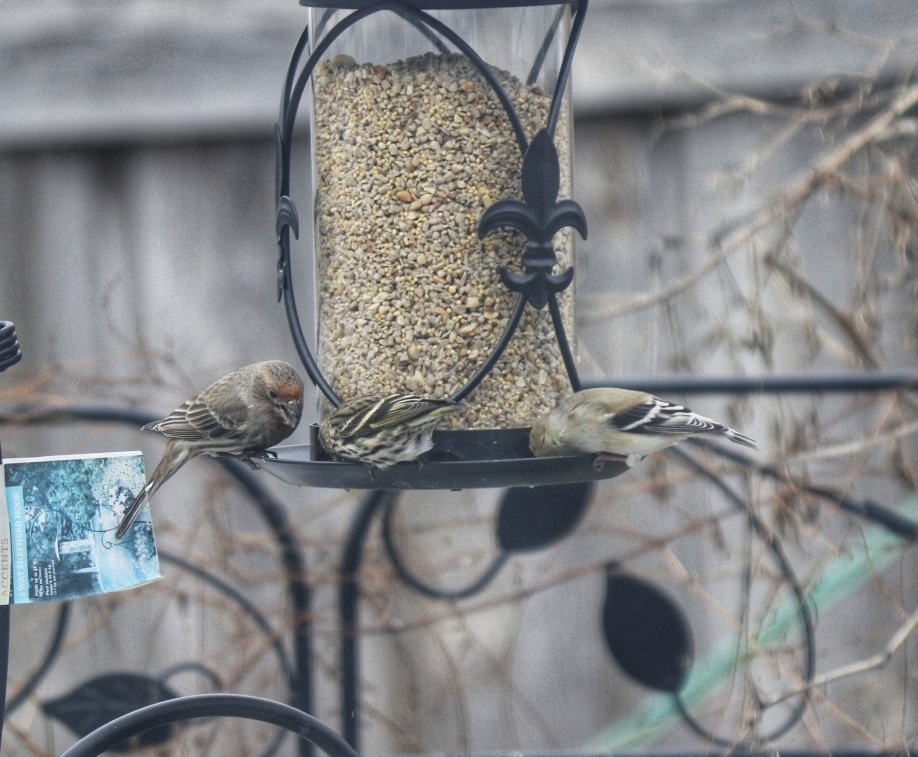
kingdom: Animalia
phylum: Chordata
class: Aves
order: Passeriformes
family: Fringillidae
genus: Spinus
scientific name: Spinus tristis
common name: American goldfinch
